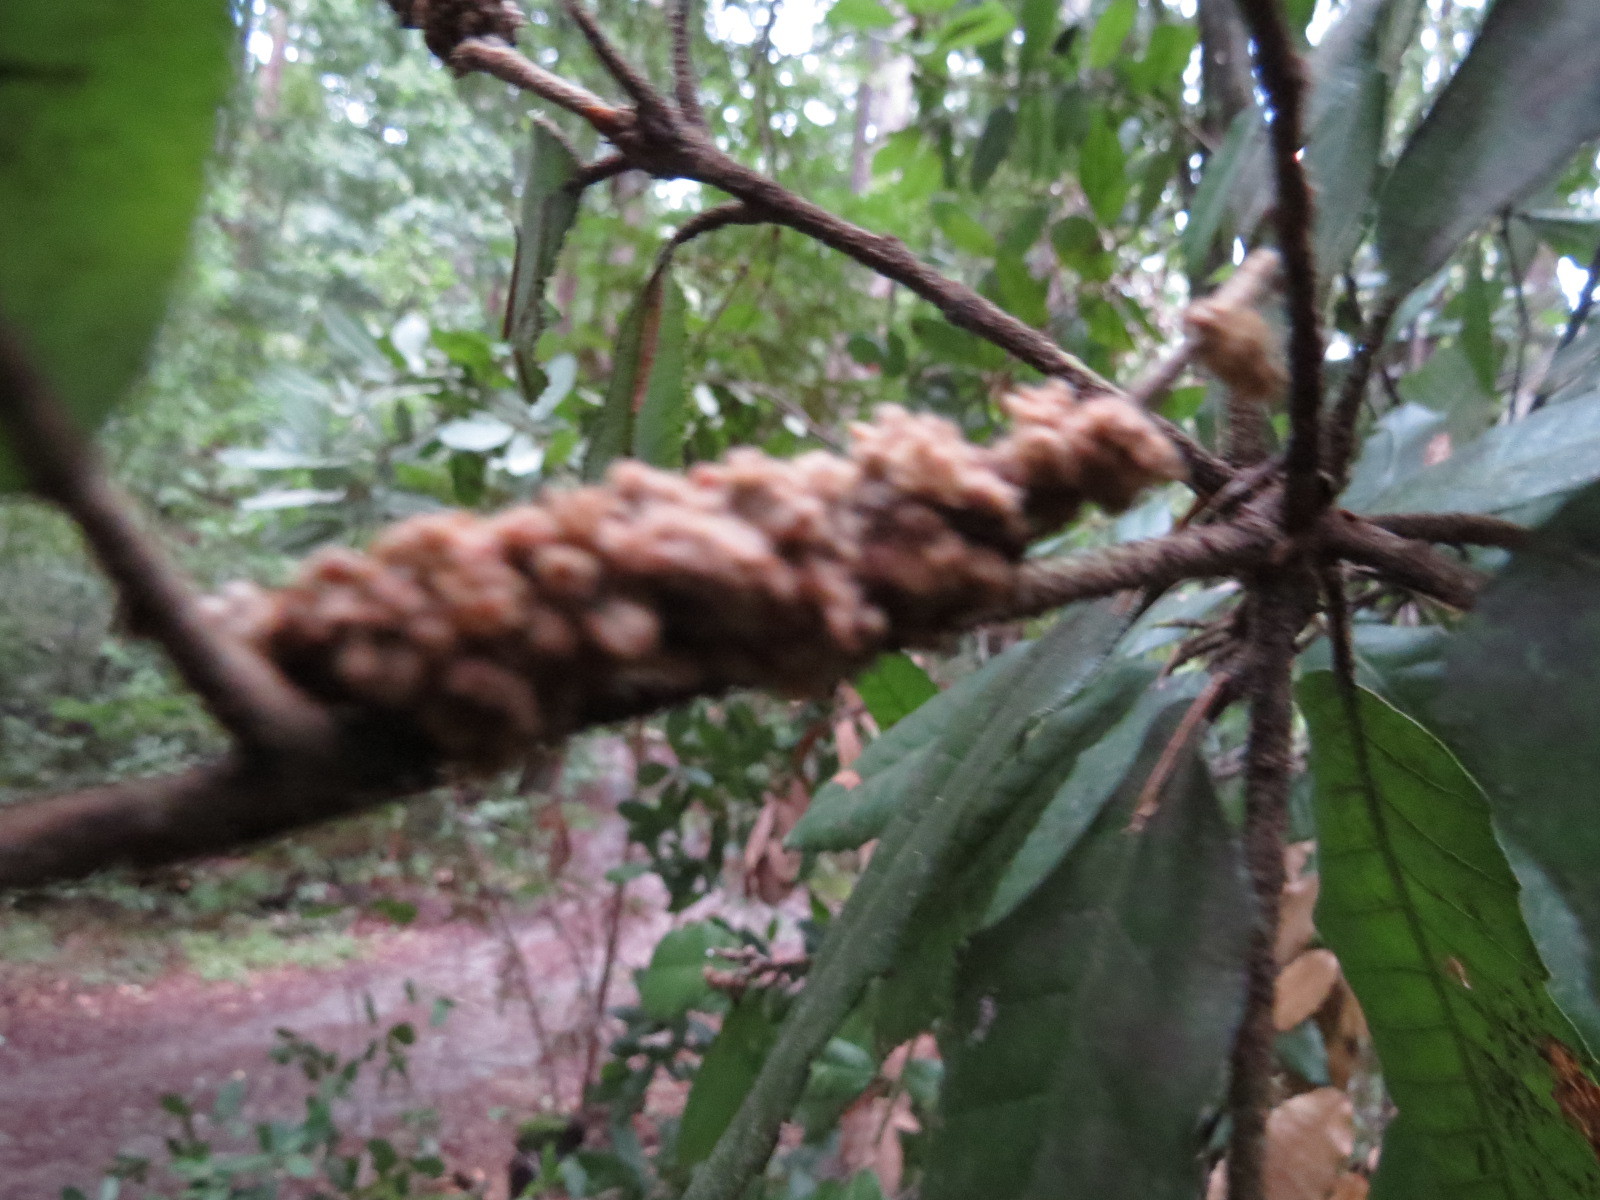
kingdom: Plantae
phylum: Tracheophyta
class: Magnoliopsida
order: Fagales
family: Fagaceae
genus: Notholithocarpus
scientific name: Notholithocarpus densiflorus
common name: Tan bark oak
